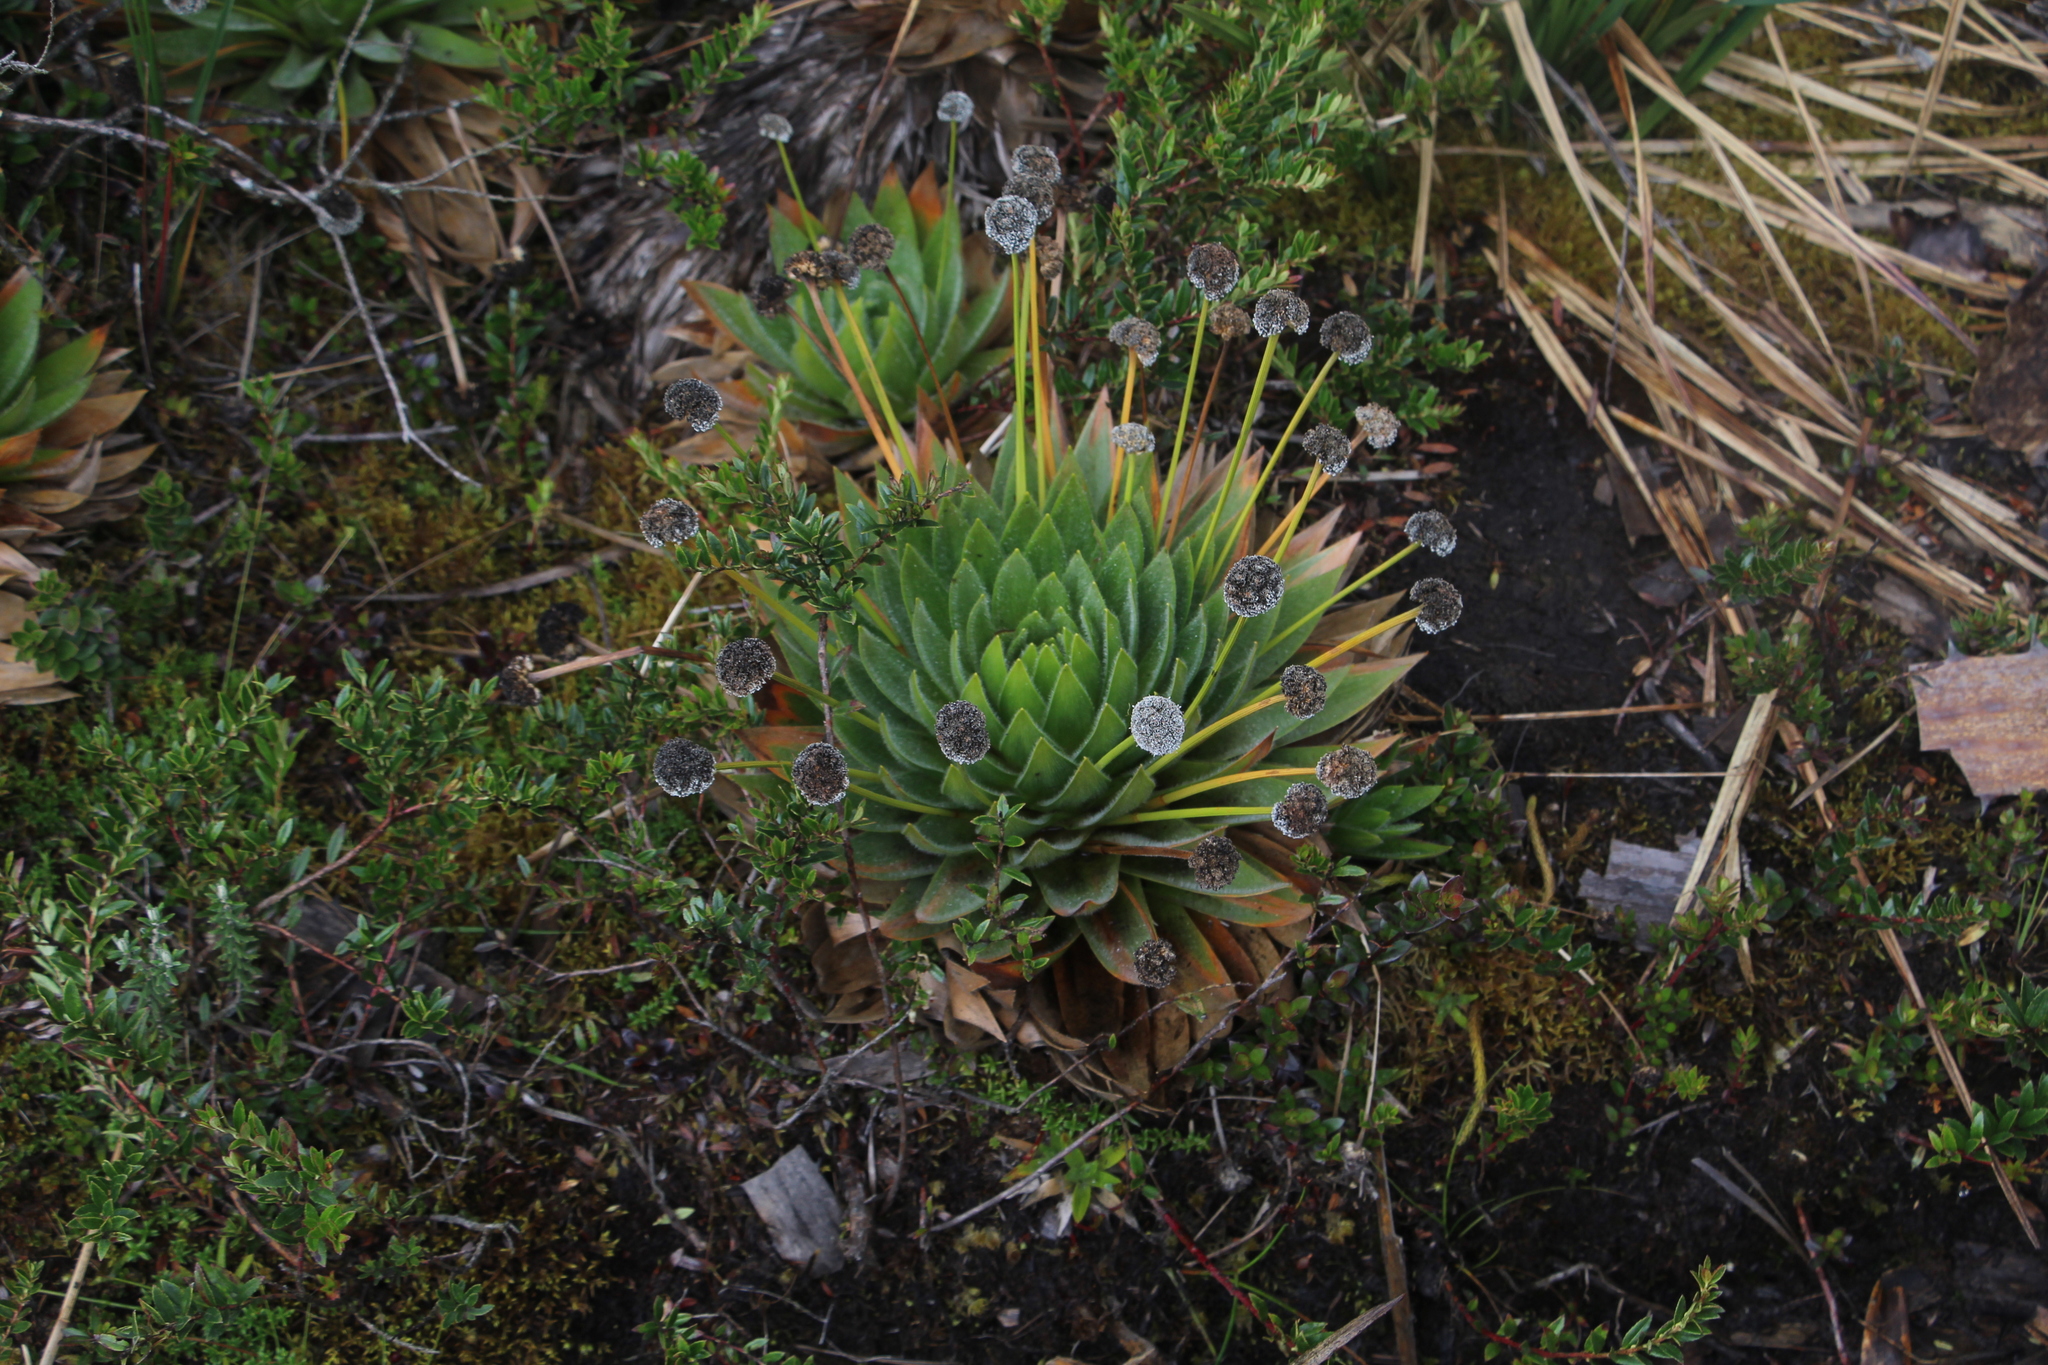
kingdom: Plantae
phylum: Tracheophyta
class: Liliopsida
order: Poales
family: Eriocaulaceae
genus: Paepalanthus
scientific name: Paepalanthus alpinus
